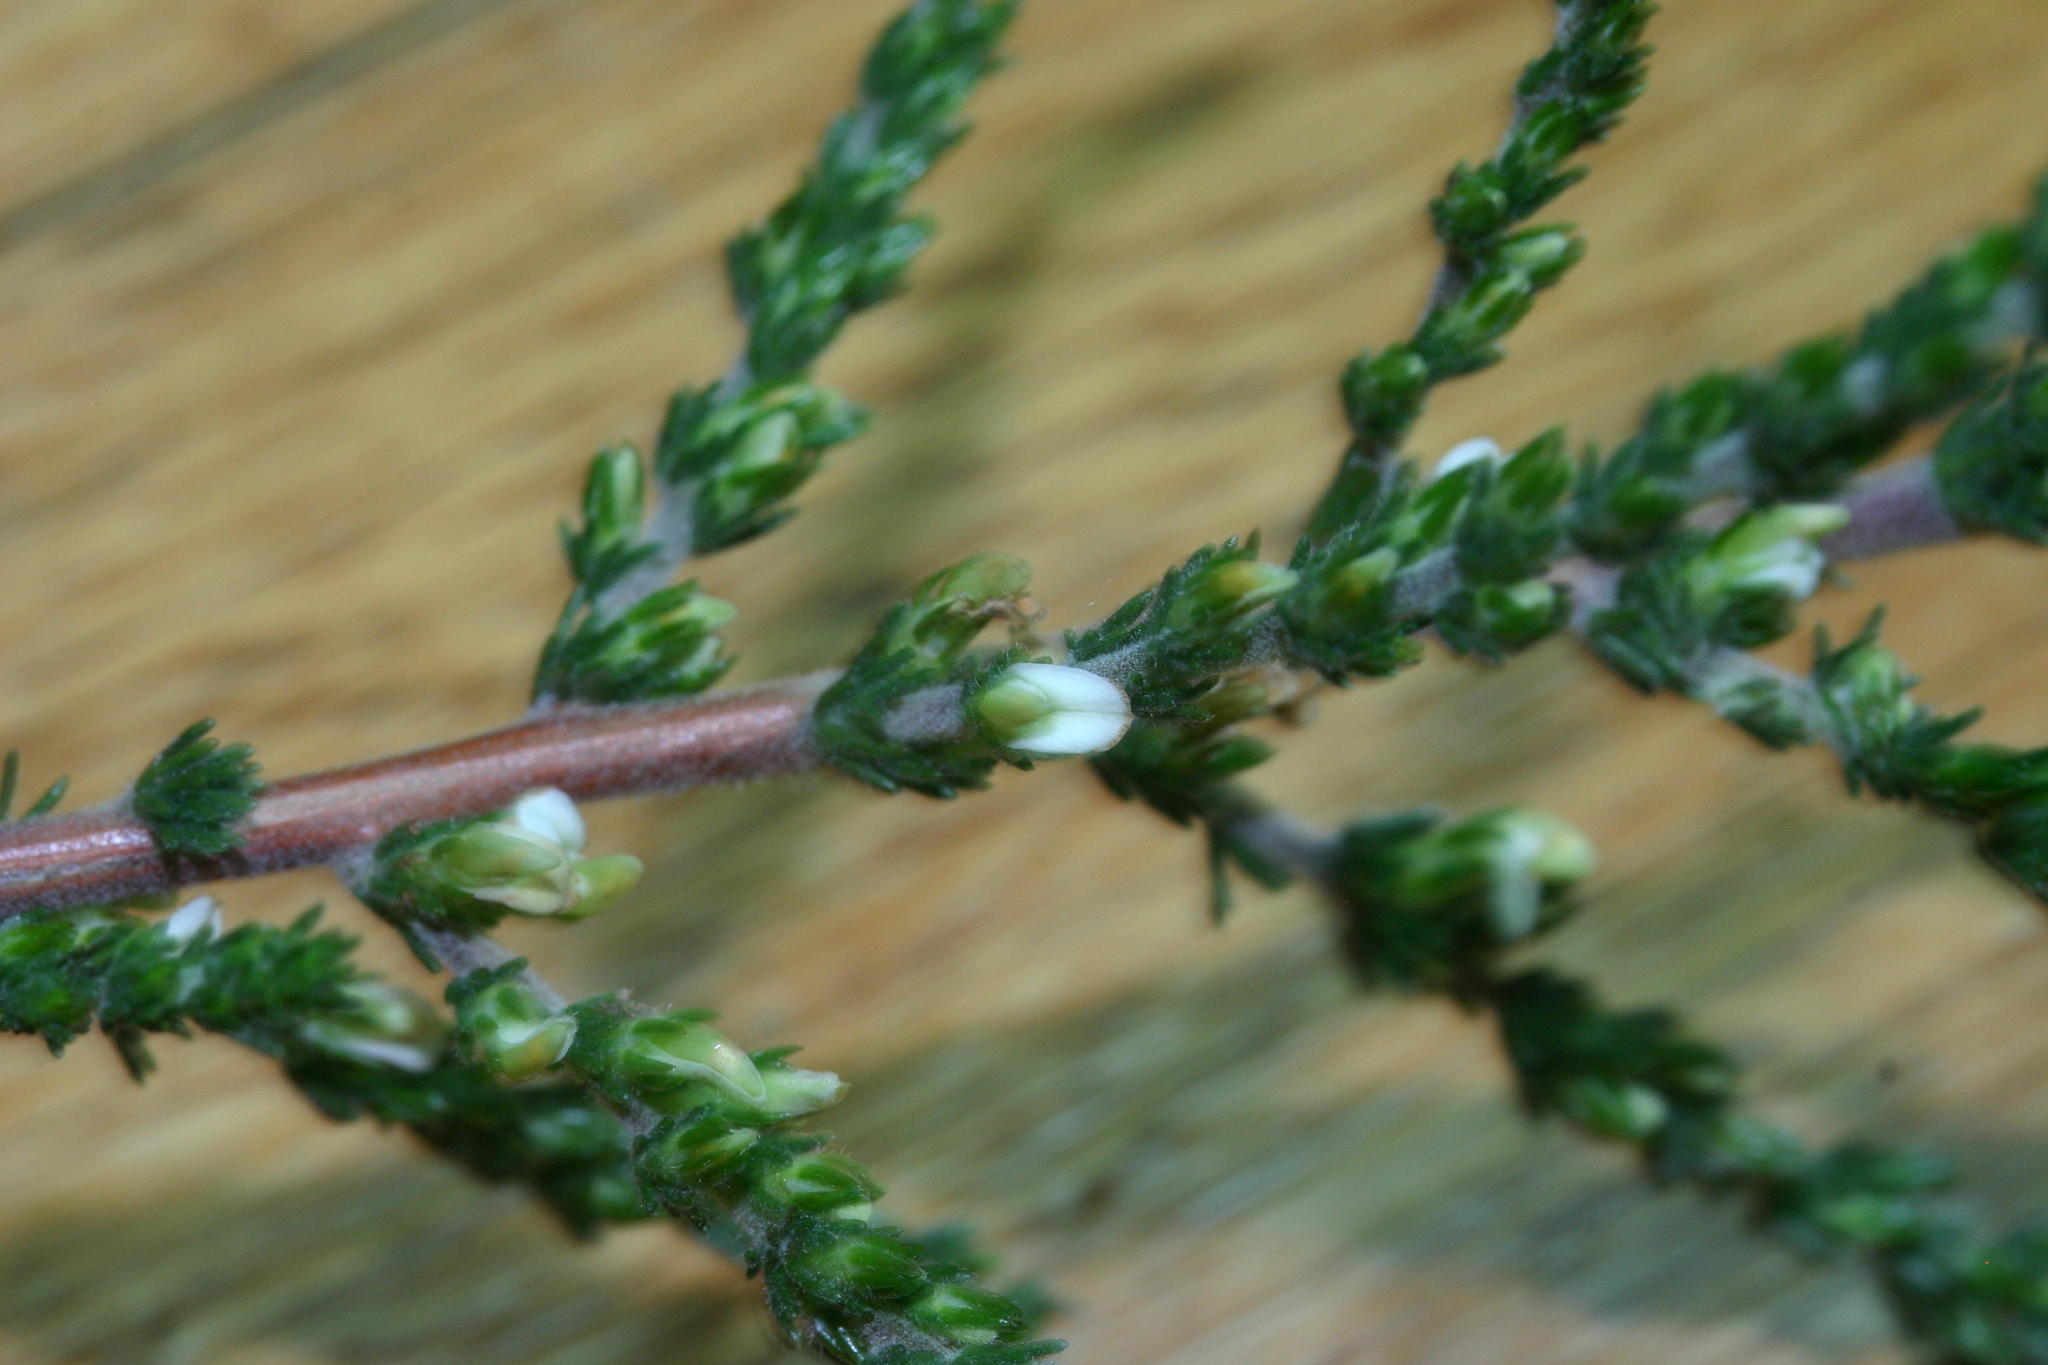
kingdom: Plantae
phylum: Tracheophyta
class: Magnoliopsida
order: Fabales
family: Fabaceae
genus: Aspalathus
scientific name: Aspalathus hispida
